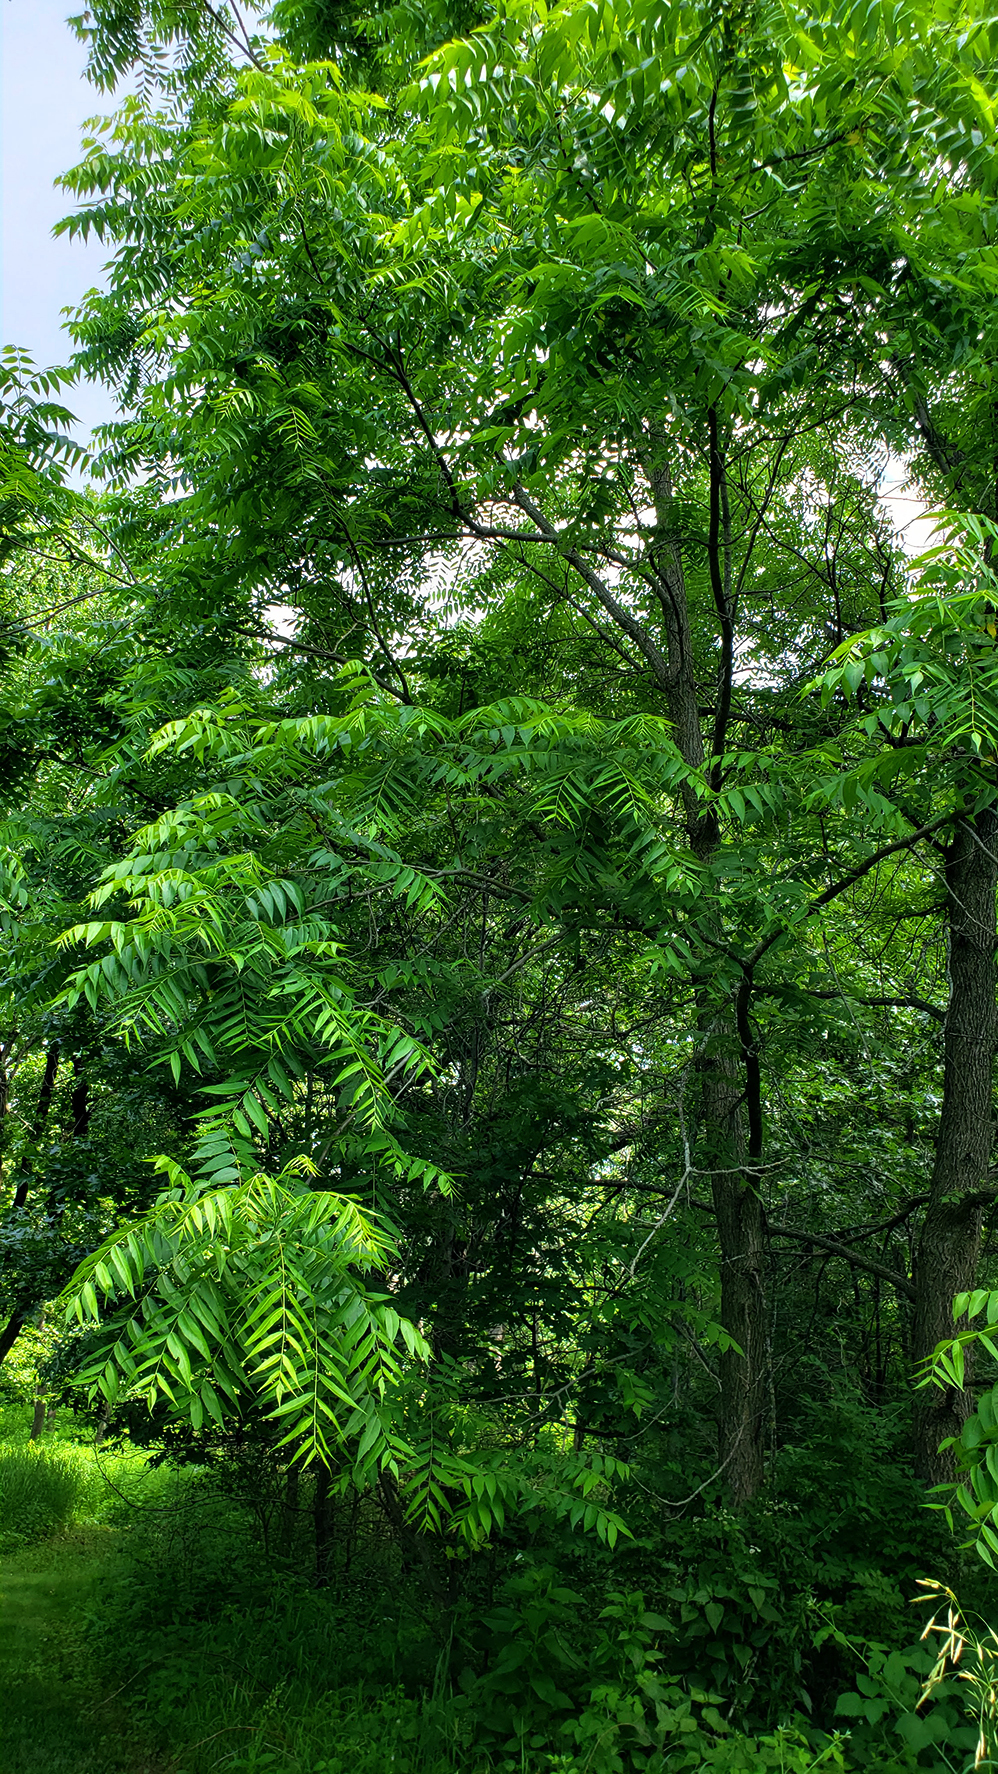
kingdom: Plantae
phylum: Tracheophyta
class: Magnoliopsida
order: Fagales
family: Juglandaceae
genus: Juglans
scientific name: Juglans nigra
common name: Black walnut
